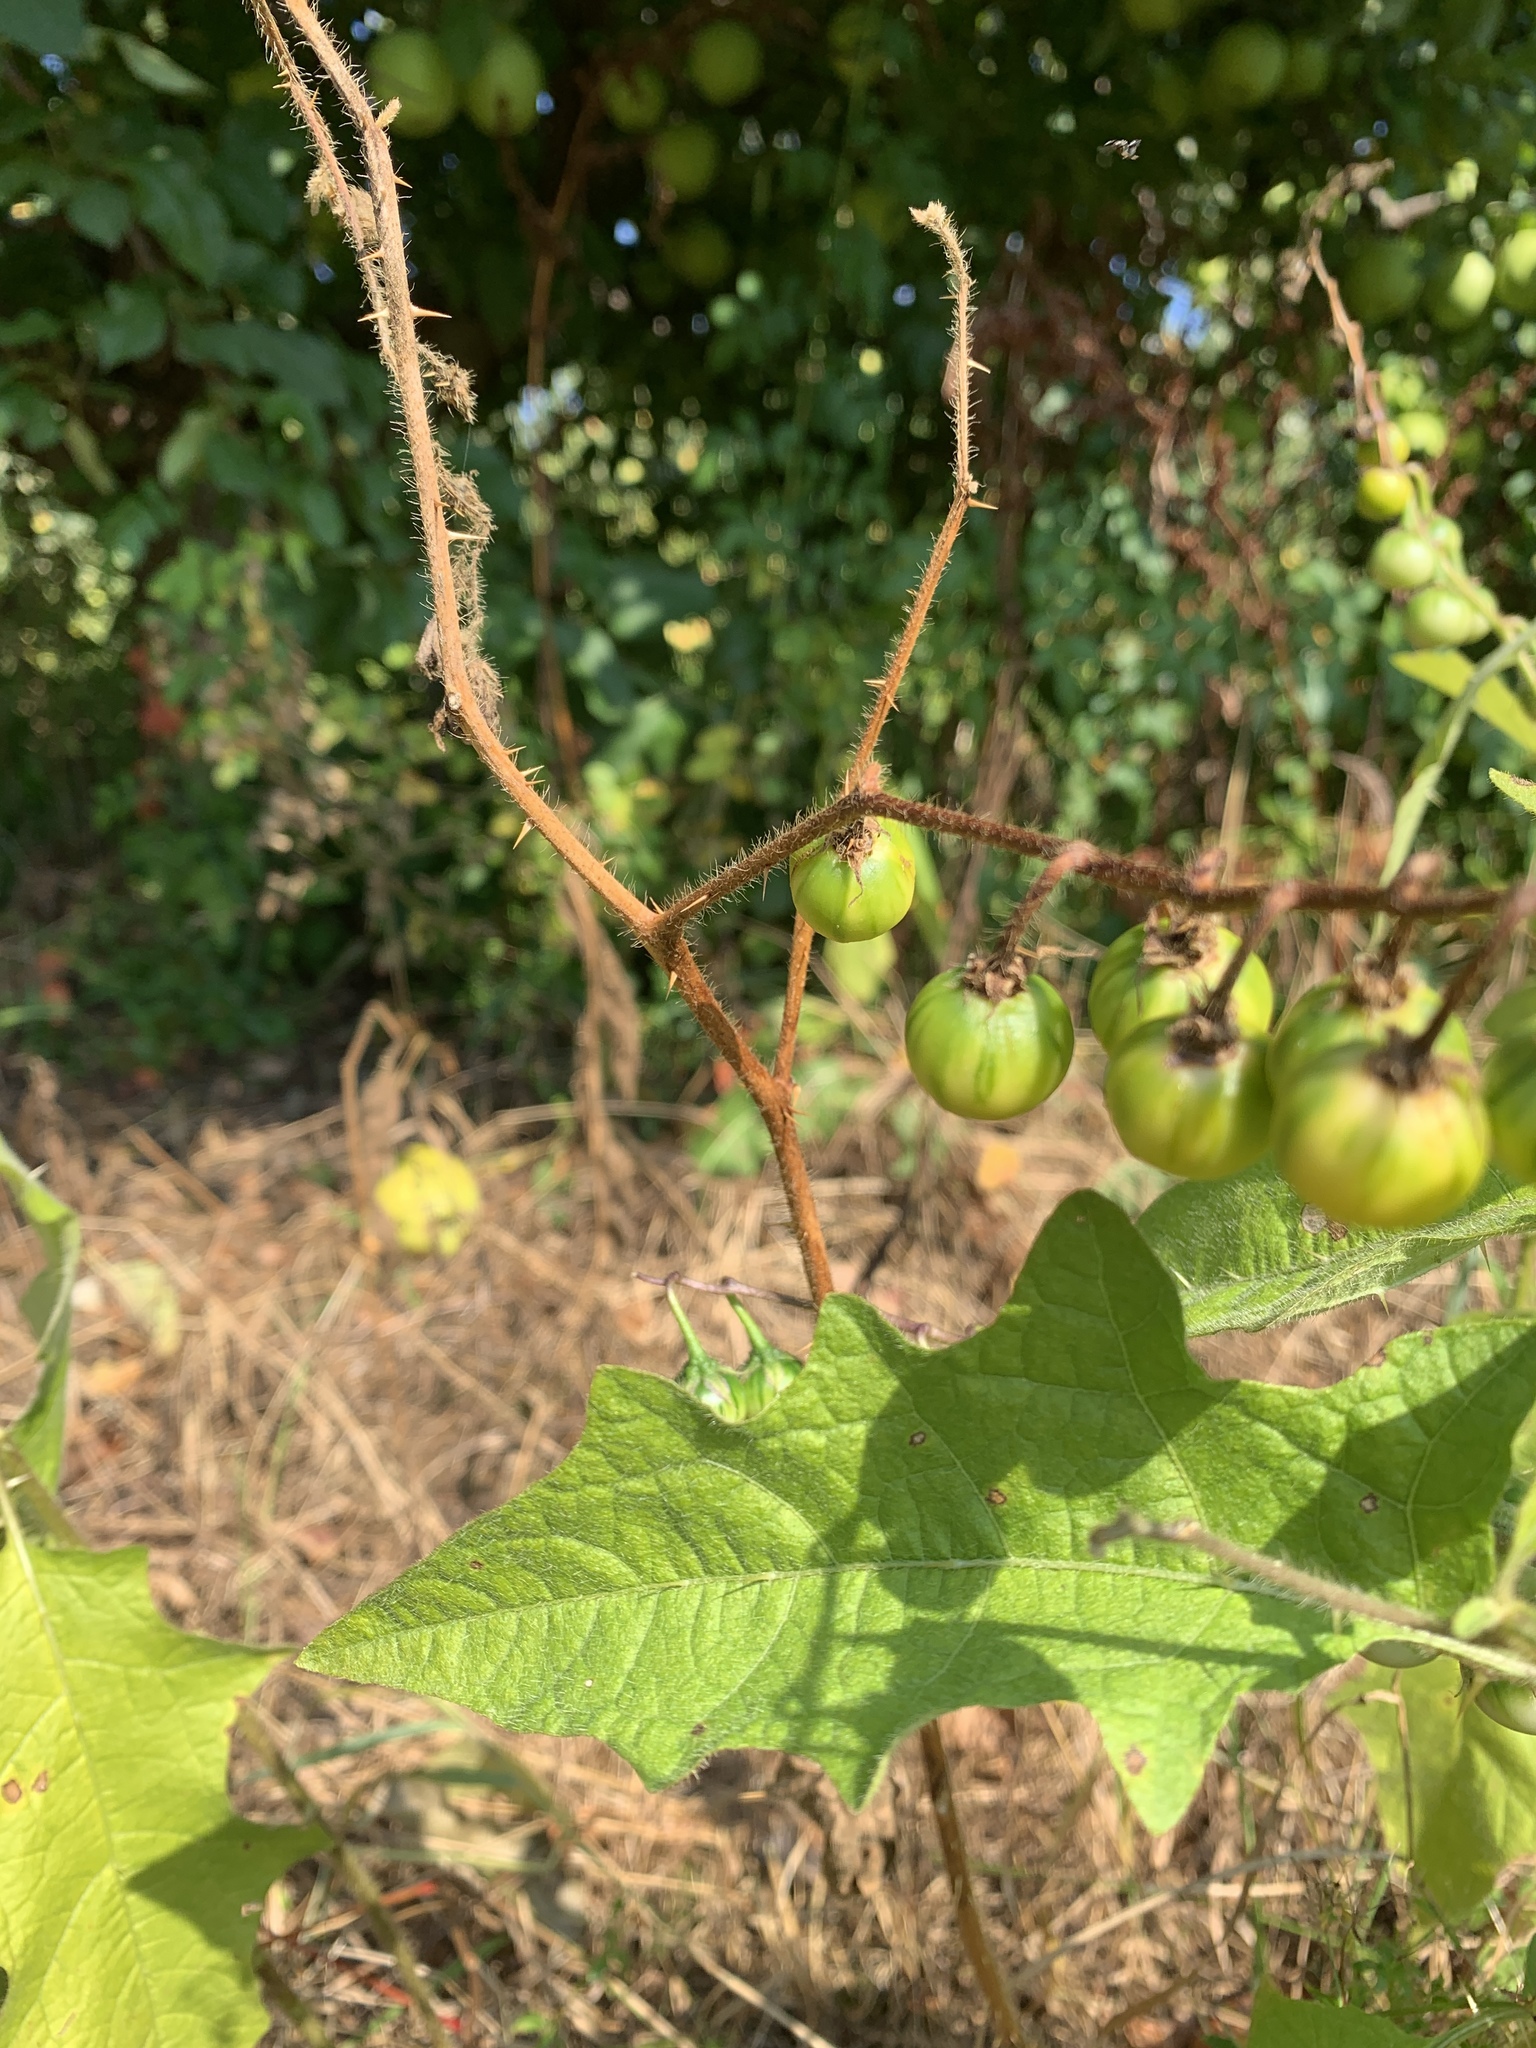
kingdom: Plantae
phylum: Tracheophyta
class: Magnoliopsida
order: Solanales
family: Solanaceae
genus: Solanum
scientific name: Solanum carolinense
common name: Horse-nettle
